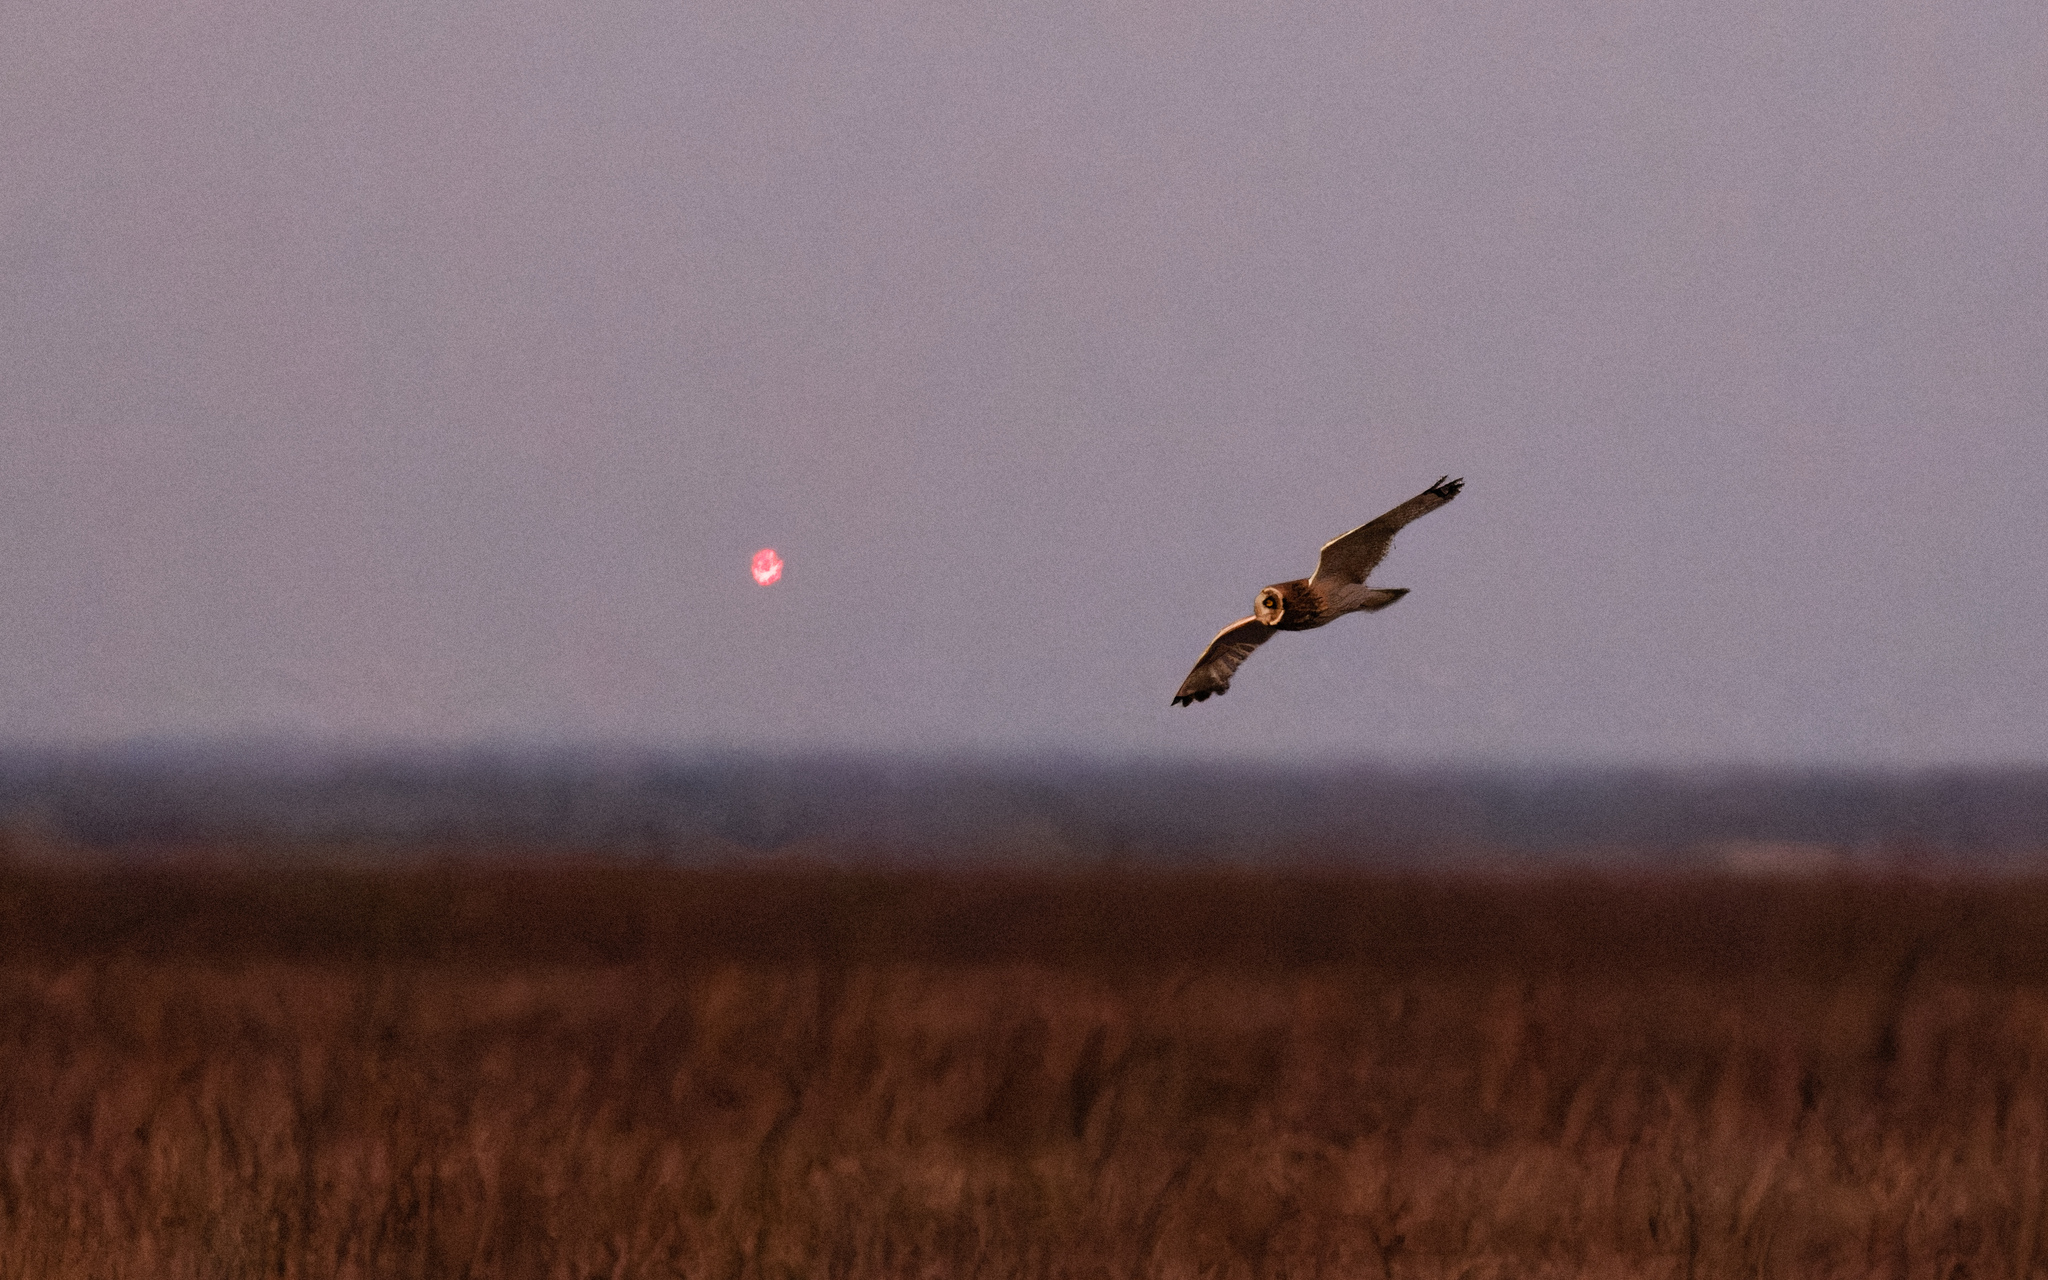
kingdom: Animalia
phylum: Chordata
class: Aves
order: Strigiformes
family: Strigidae
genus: Asio
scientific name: Asio flammeus
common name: Short-eared owl
